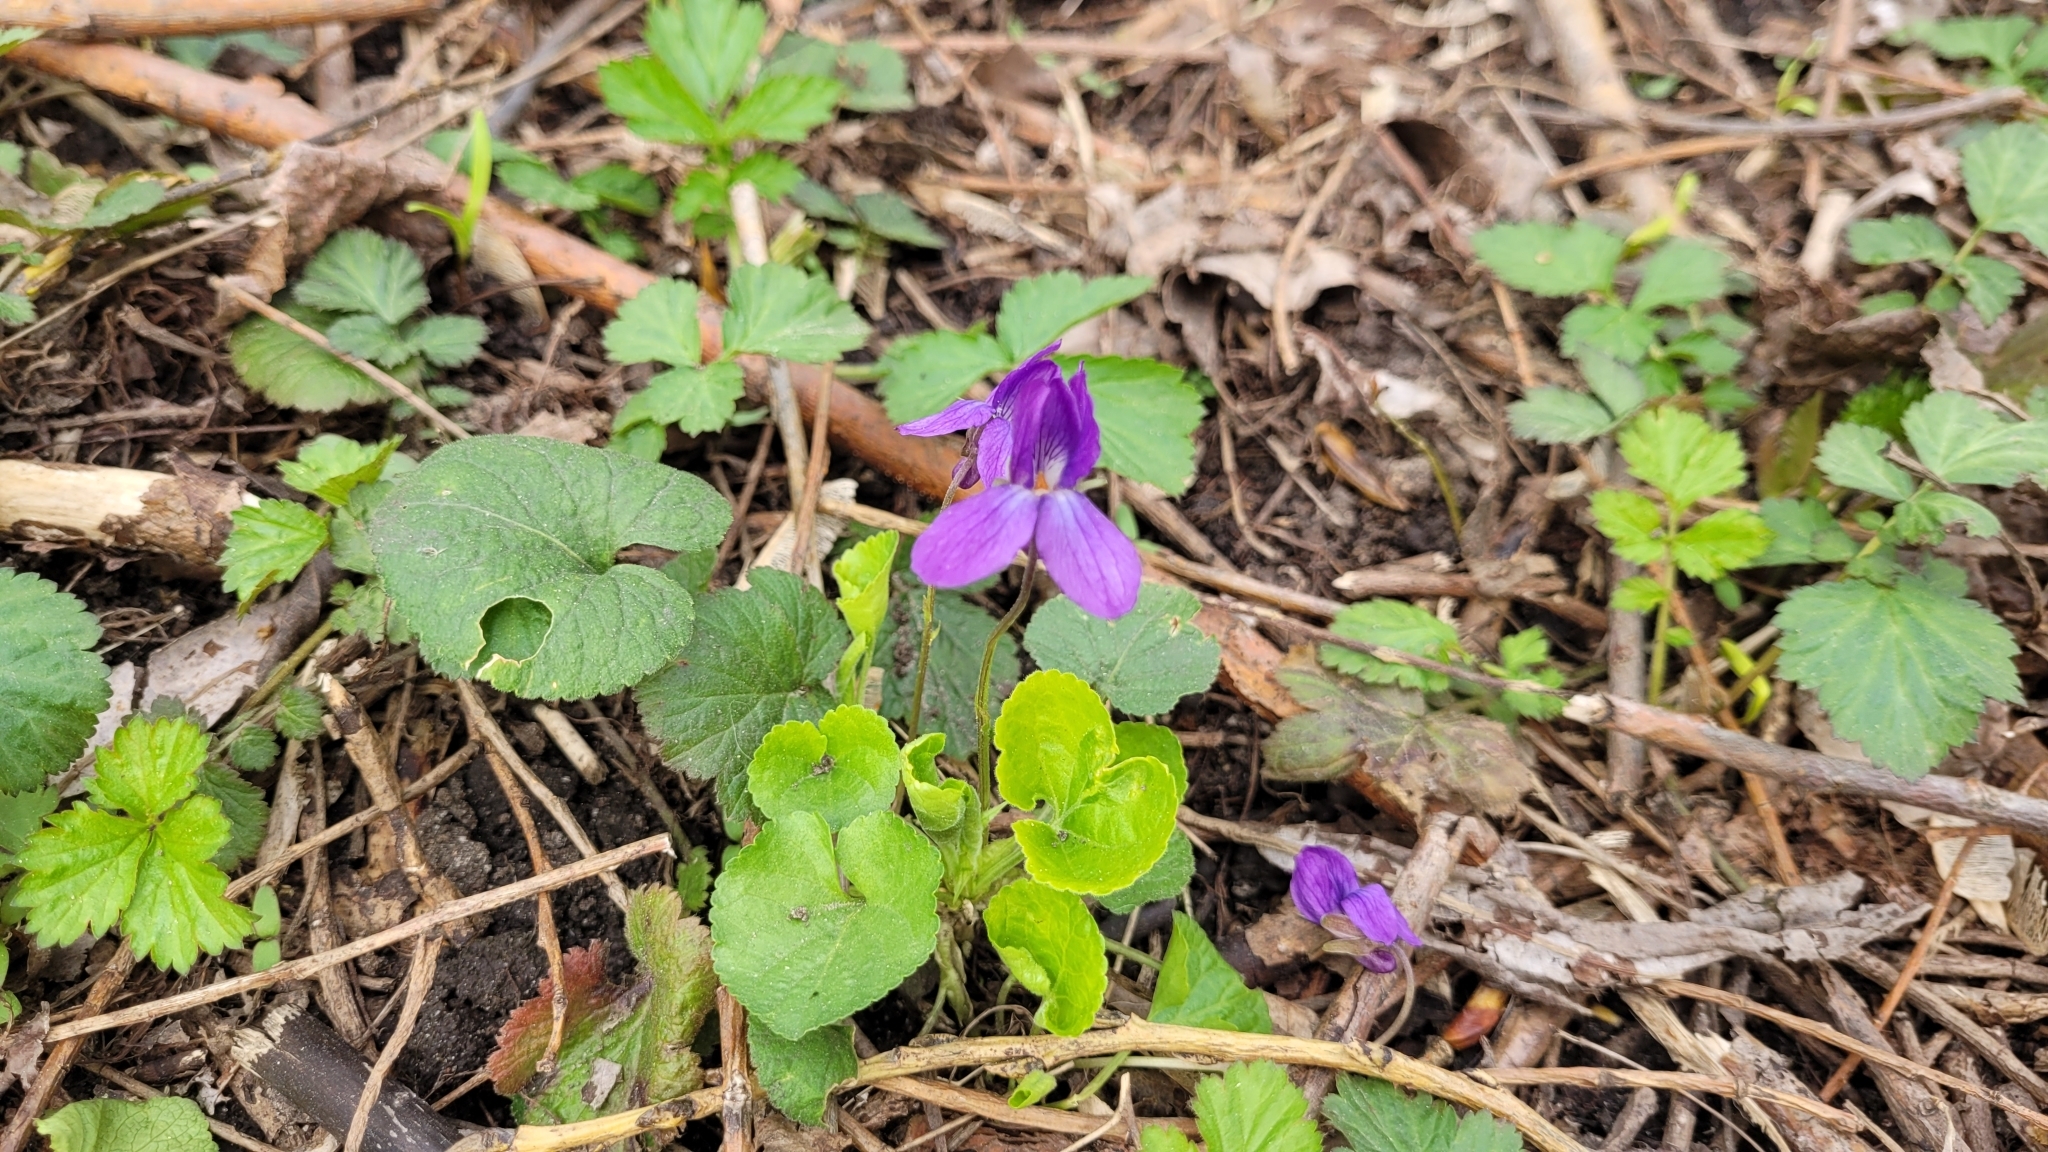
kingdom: Plantae
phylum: Tracheophyta
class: Magnoliopsida
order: Malpighiales
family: Violaceae
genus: Viola
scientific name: Viola odorata
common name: Sweet violet
